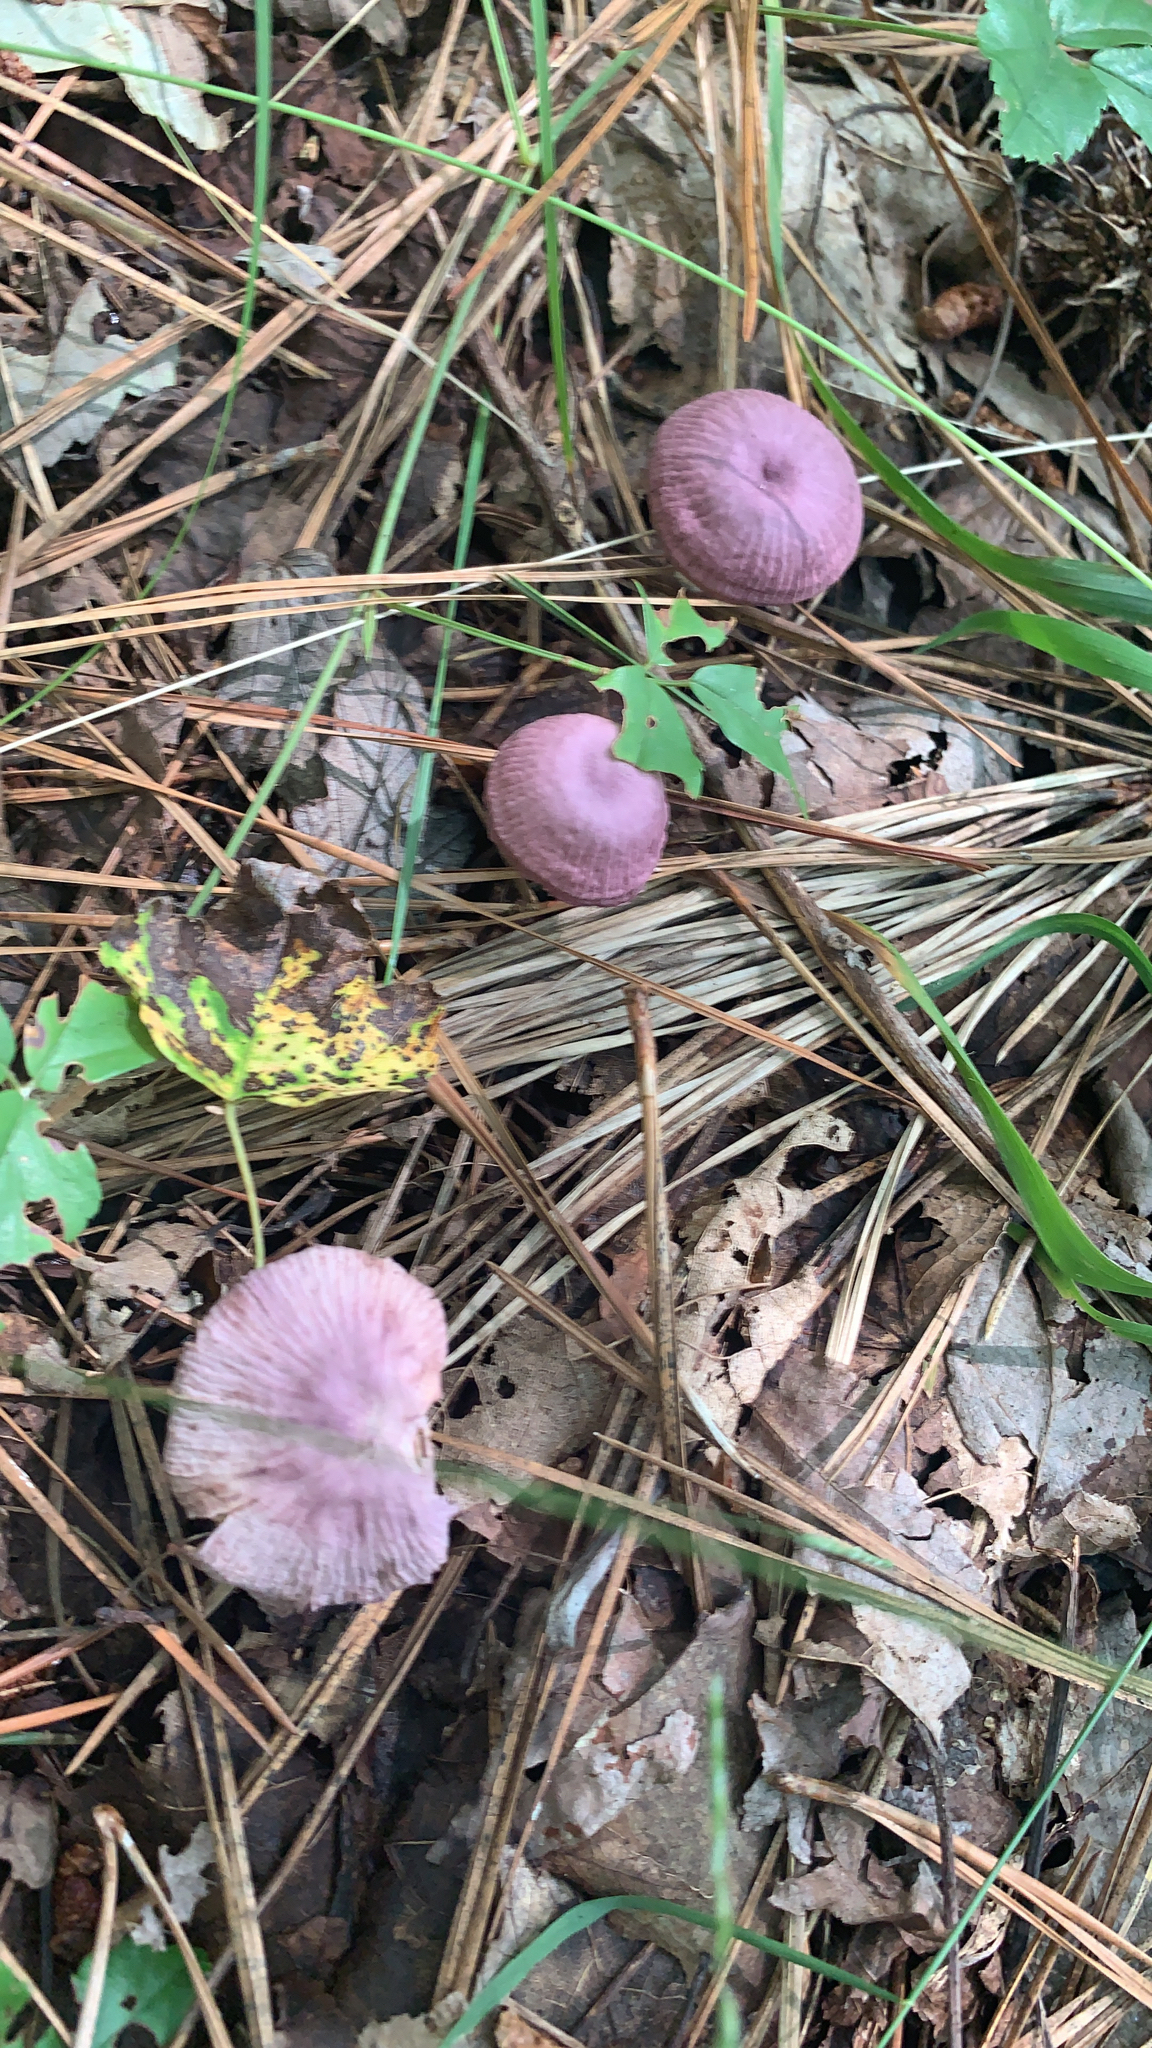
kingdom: Fungi
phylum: Basidiomycota
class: Agaricomycetes
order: Agaricales
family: Omphalotaceae
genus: Gymnopus
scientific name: Gymnopus iocephalus
